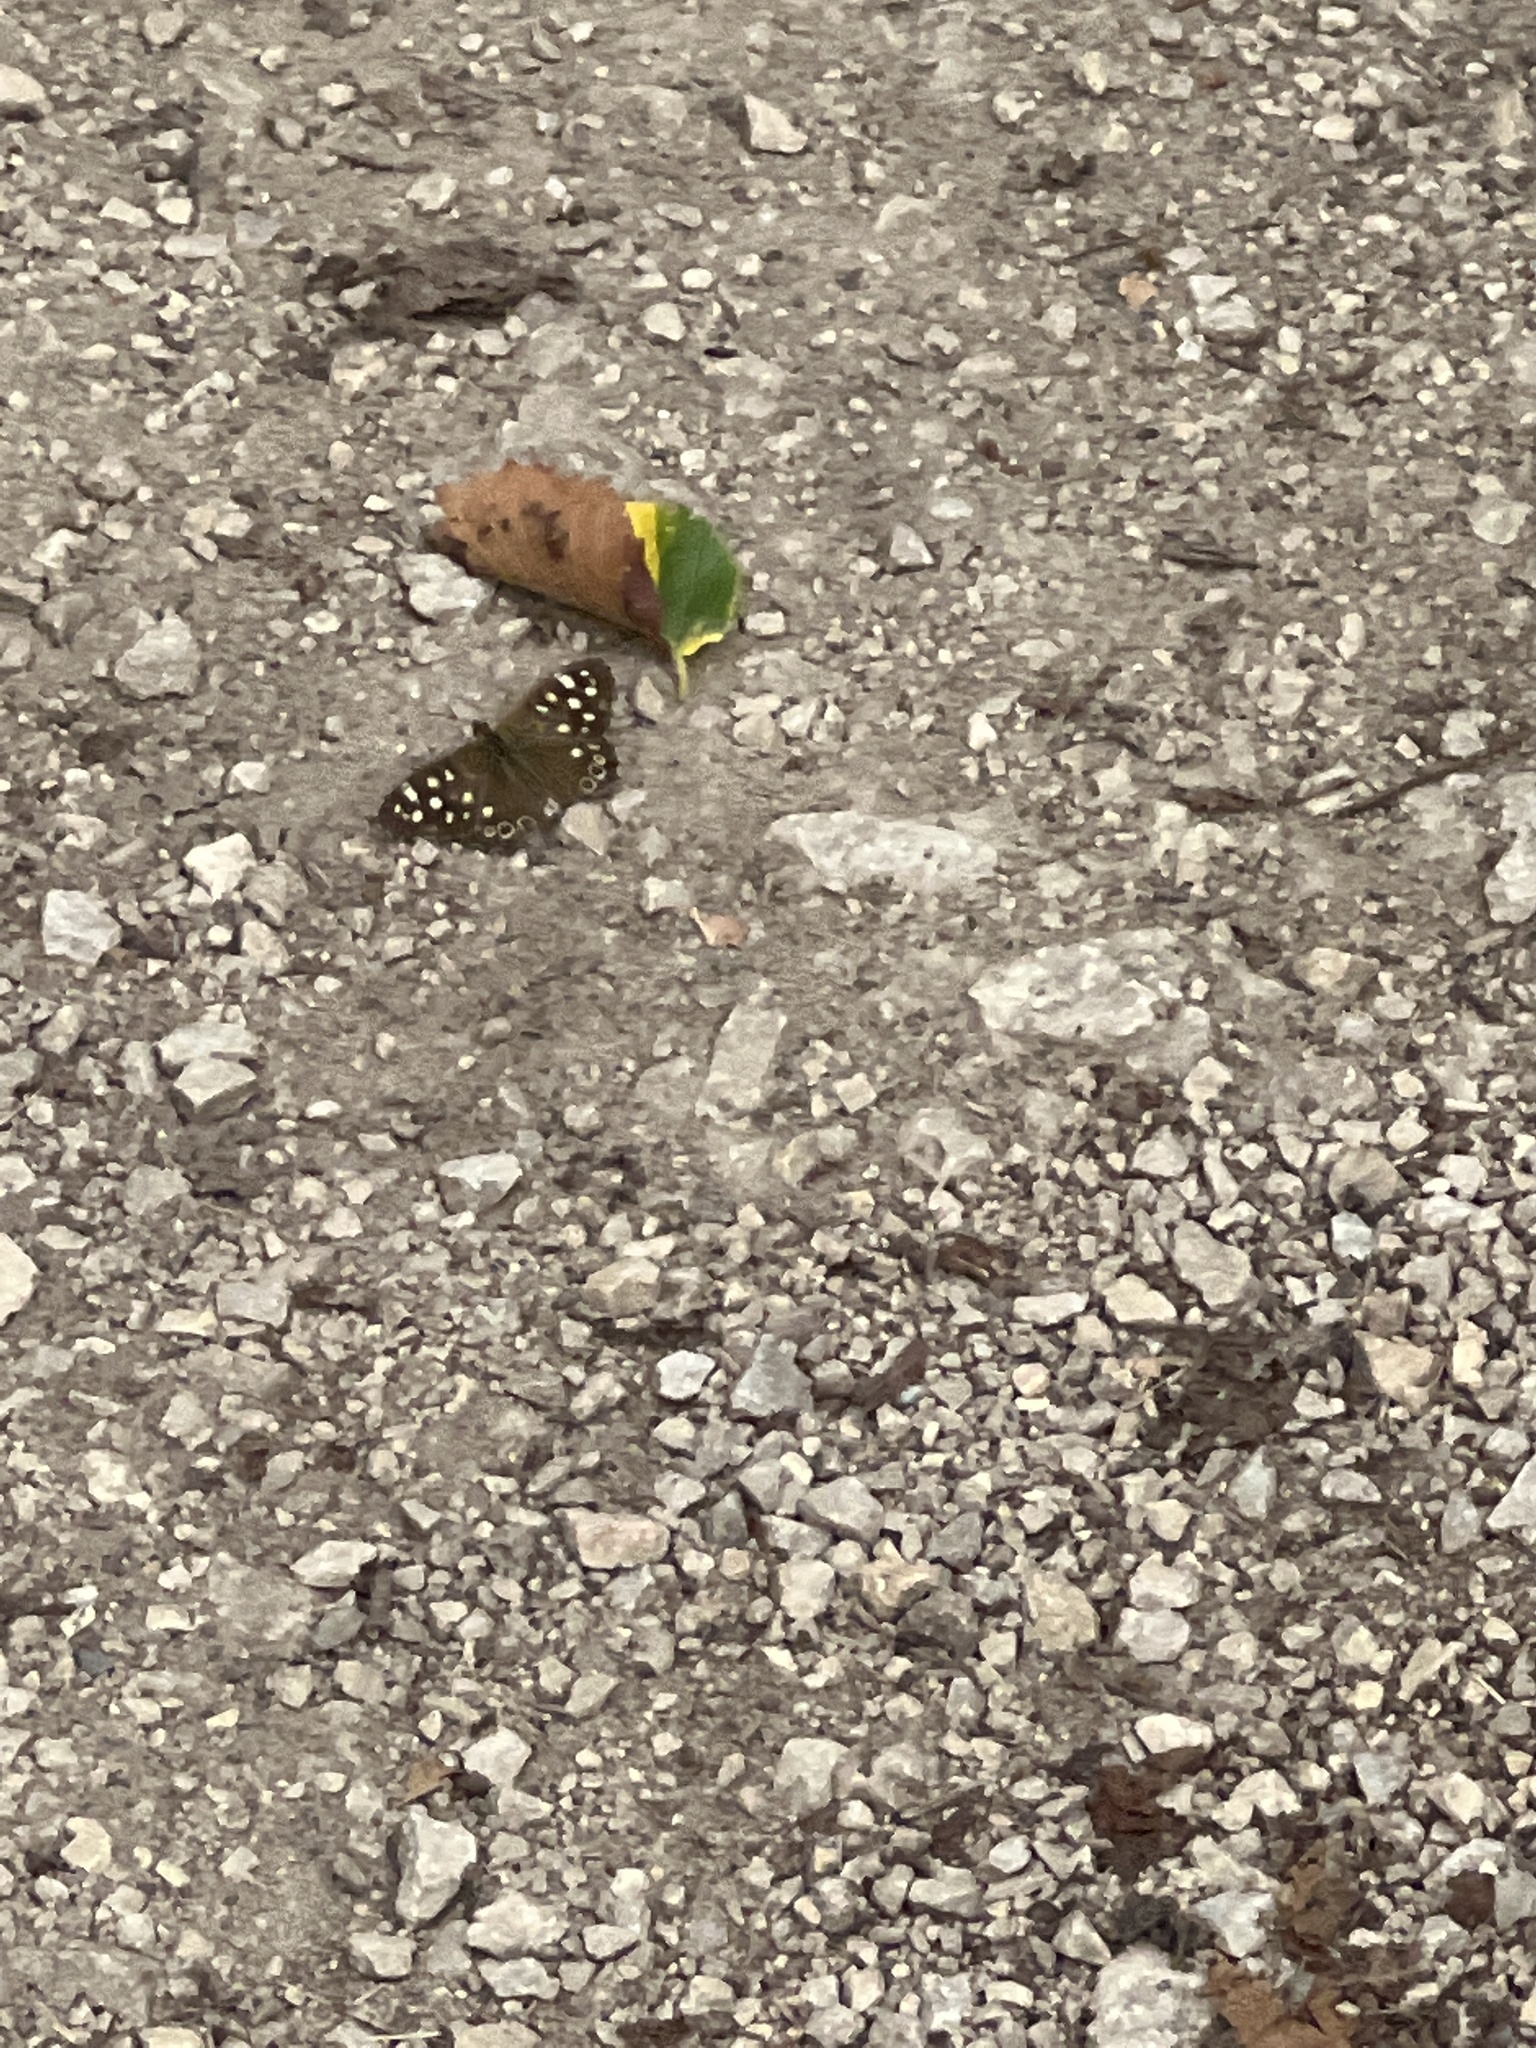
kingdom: Animalia
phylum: Arthropoda
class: Insecta
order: Lepidoptera
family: Nymphalidae
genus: Pararge
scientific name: Pararge aegeria
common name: Speckled wood
